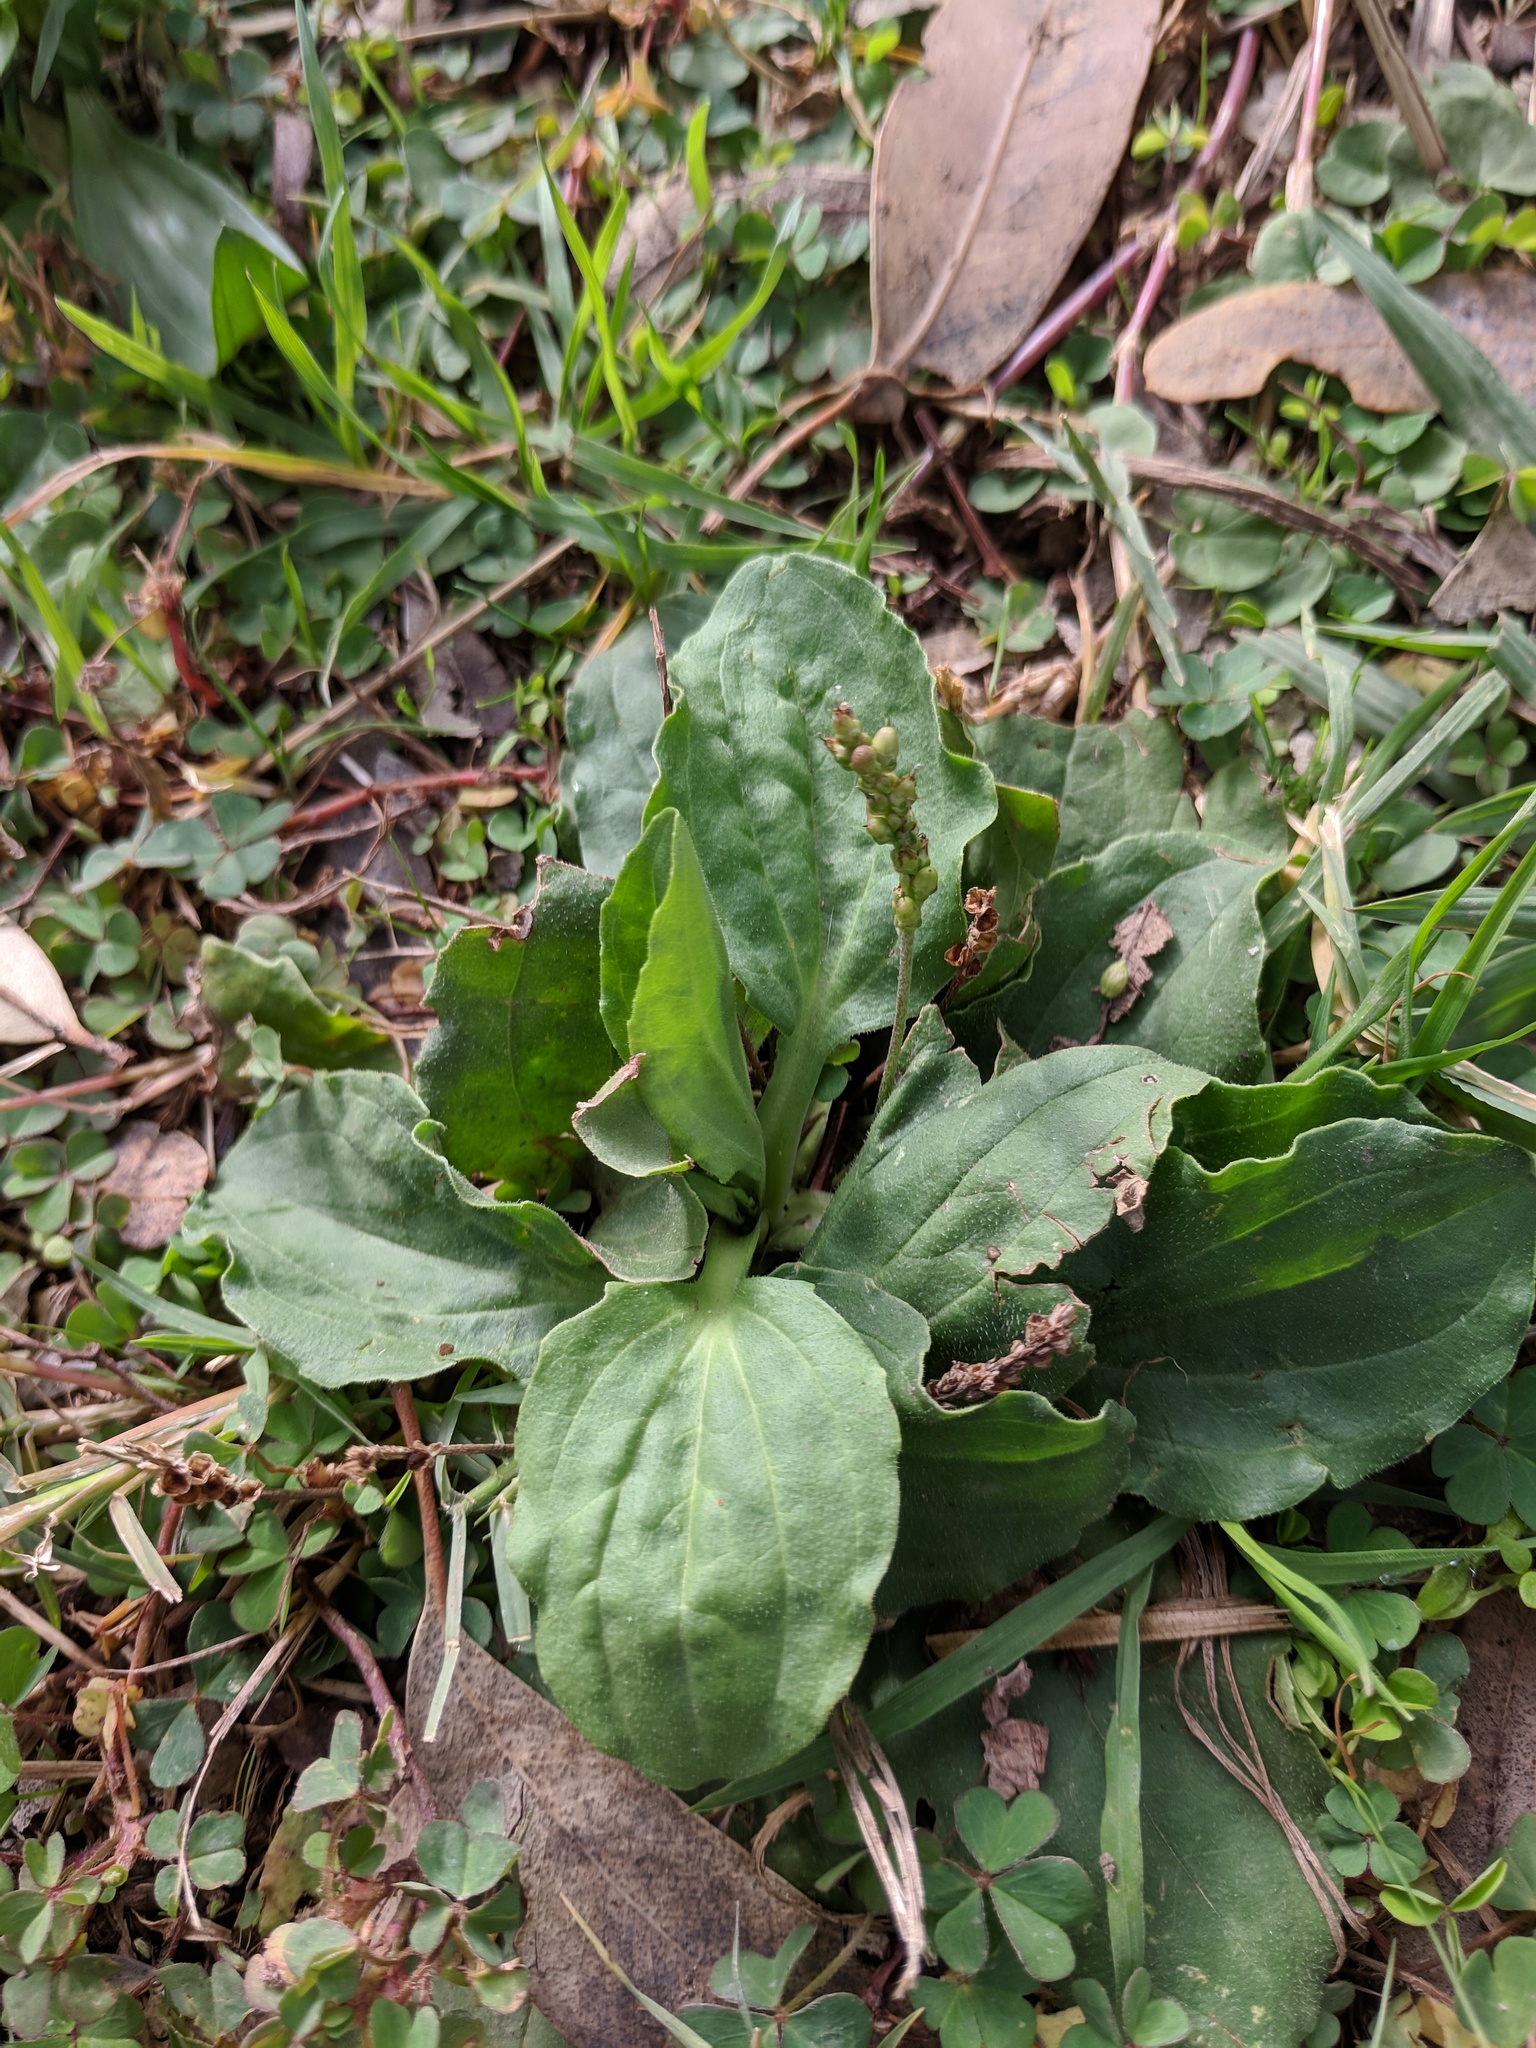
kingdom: Plantae
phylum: Tracheophyta
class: Magnoliopsida
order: Lamiales
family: Plantaginaceae
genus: Plantago
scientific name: Plantago major
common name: Common plantain
